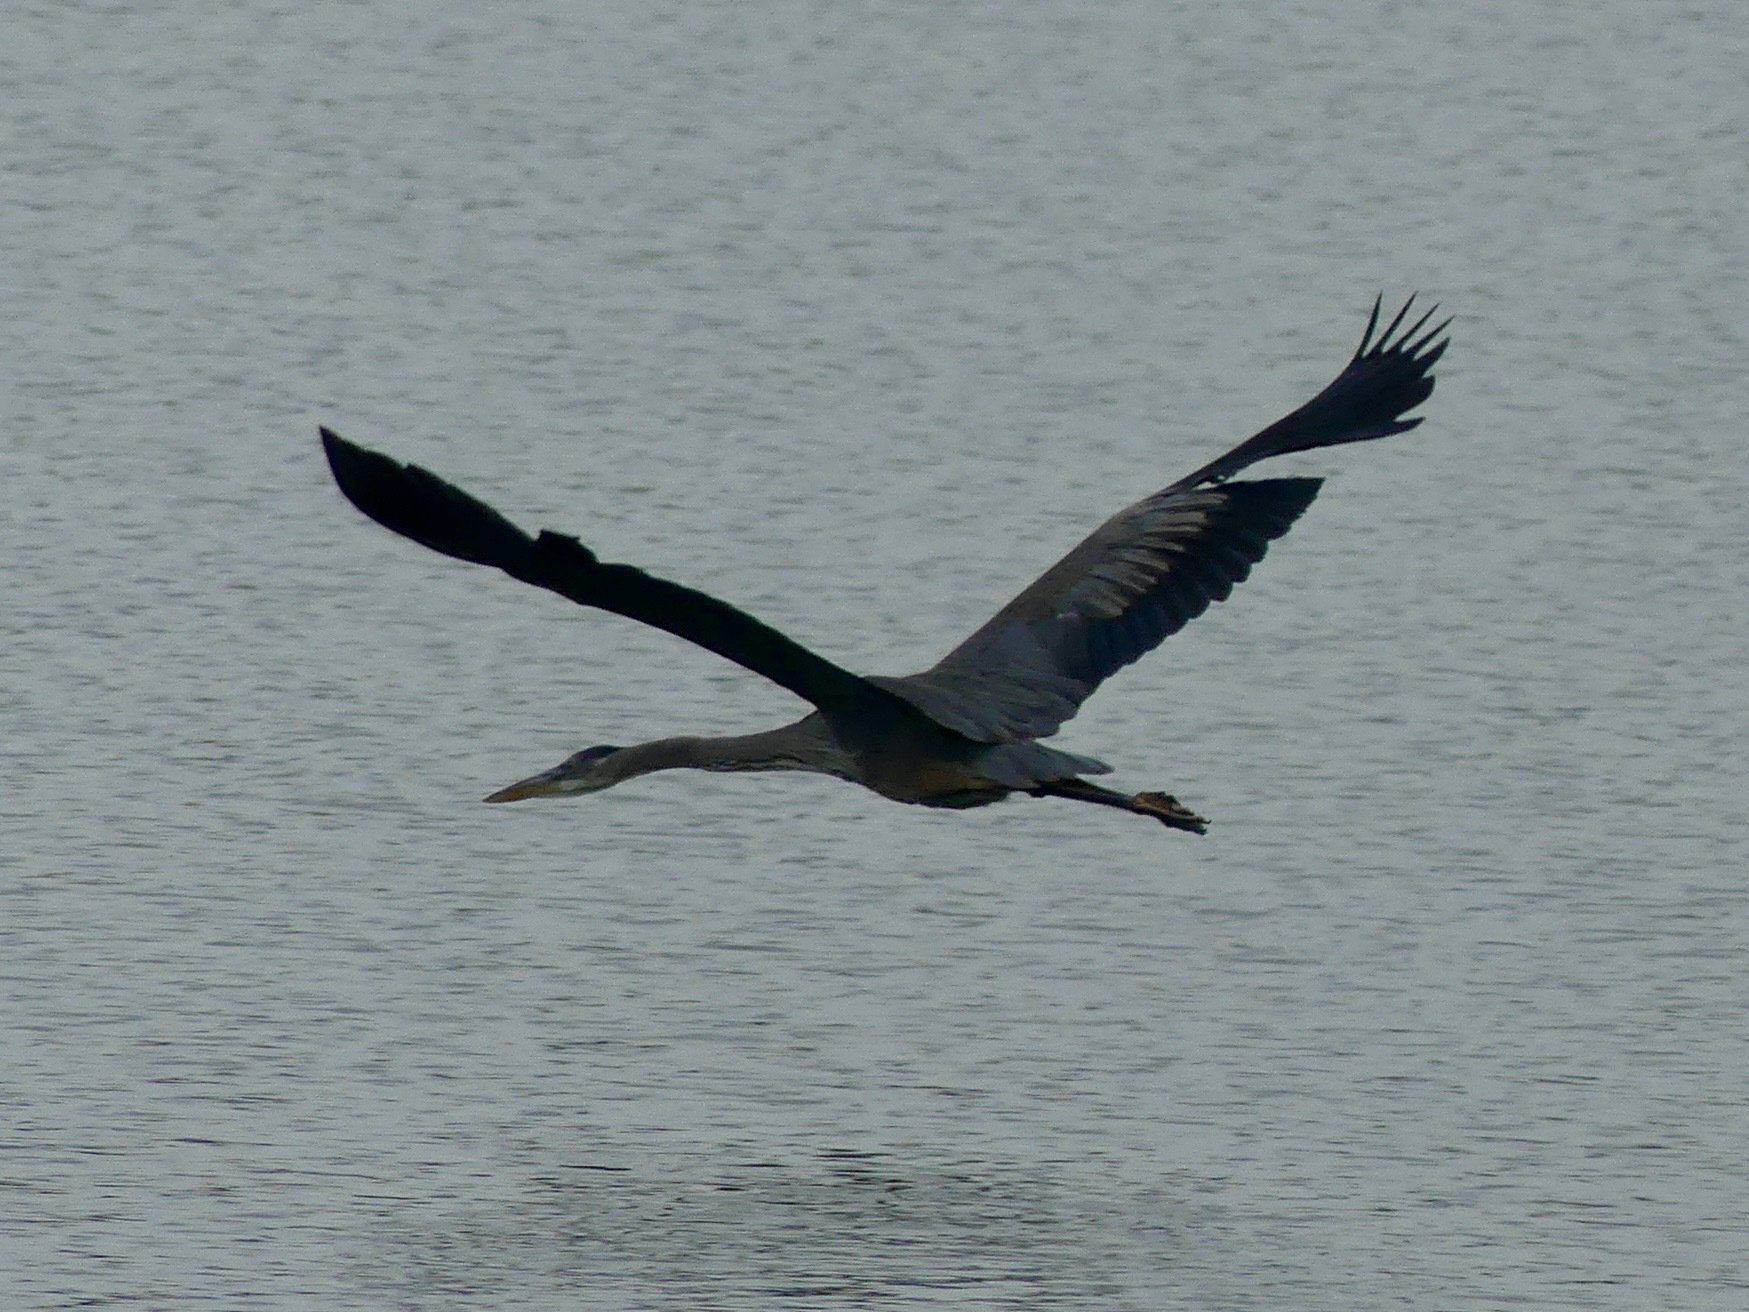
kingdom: Animalia
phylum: Chordata
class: Aves
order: Pelecaniformes
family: Ardeidae
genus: Ardea
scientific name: Ardea herodias
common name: Great blue heron
